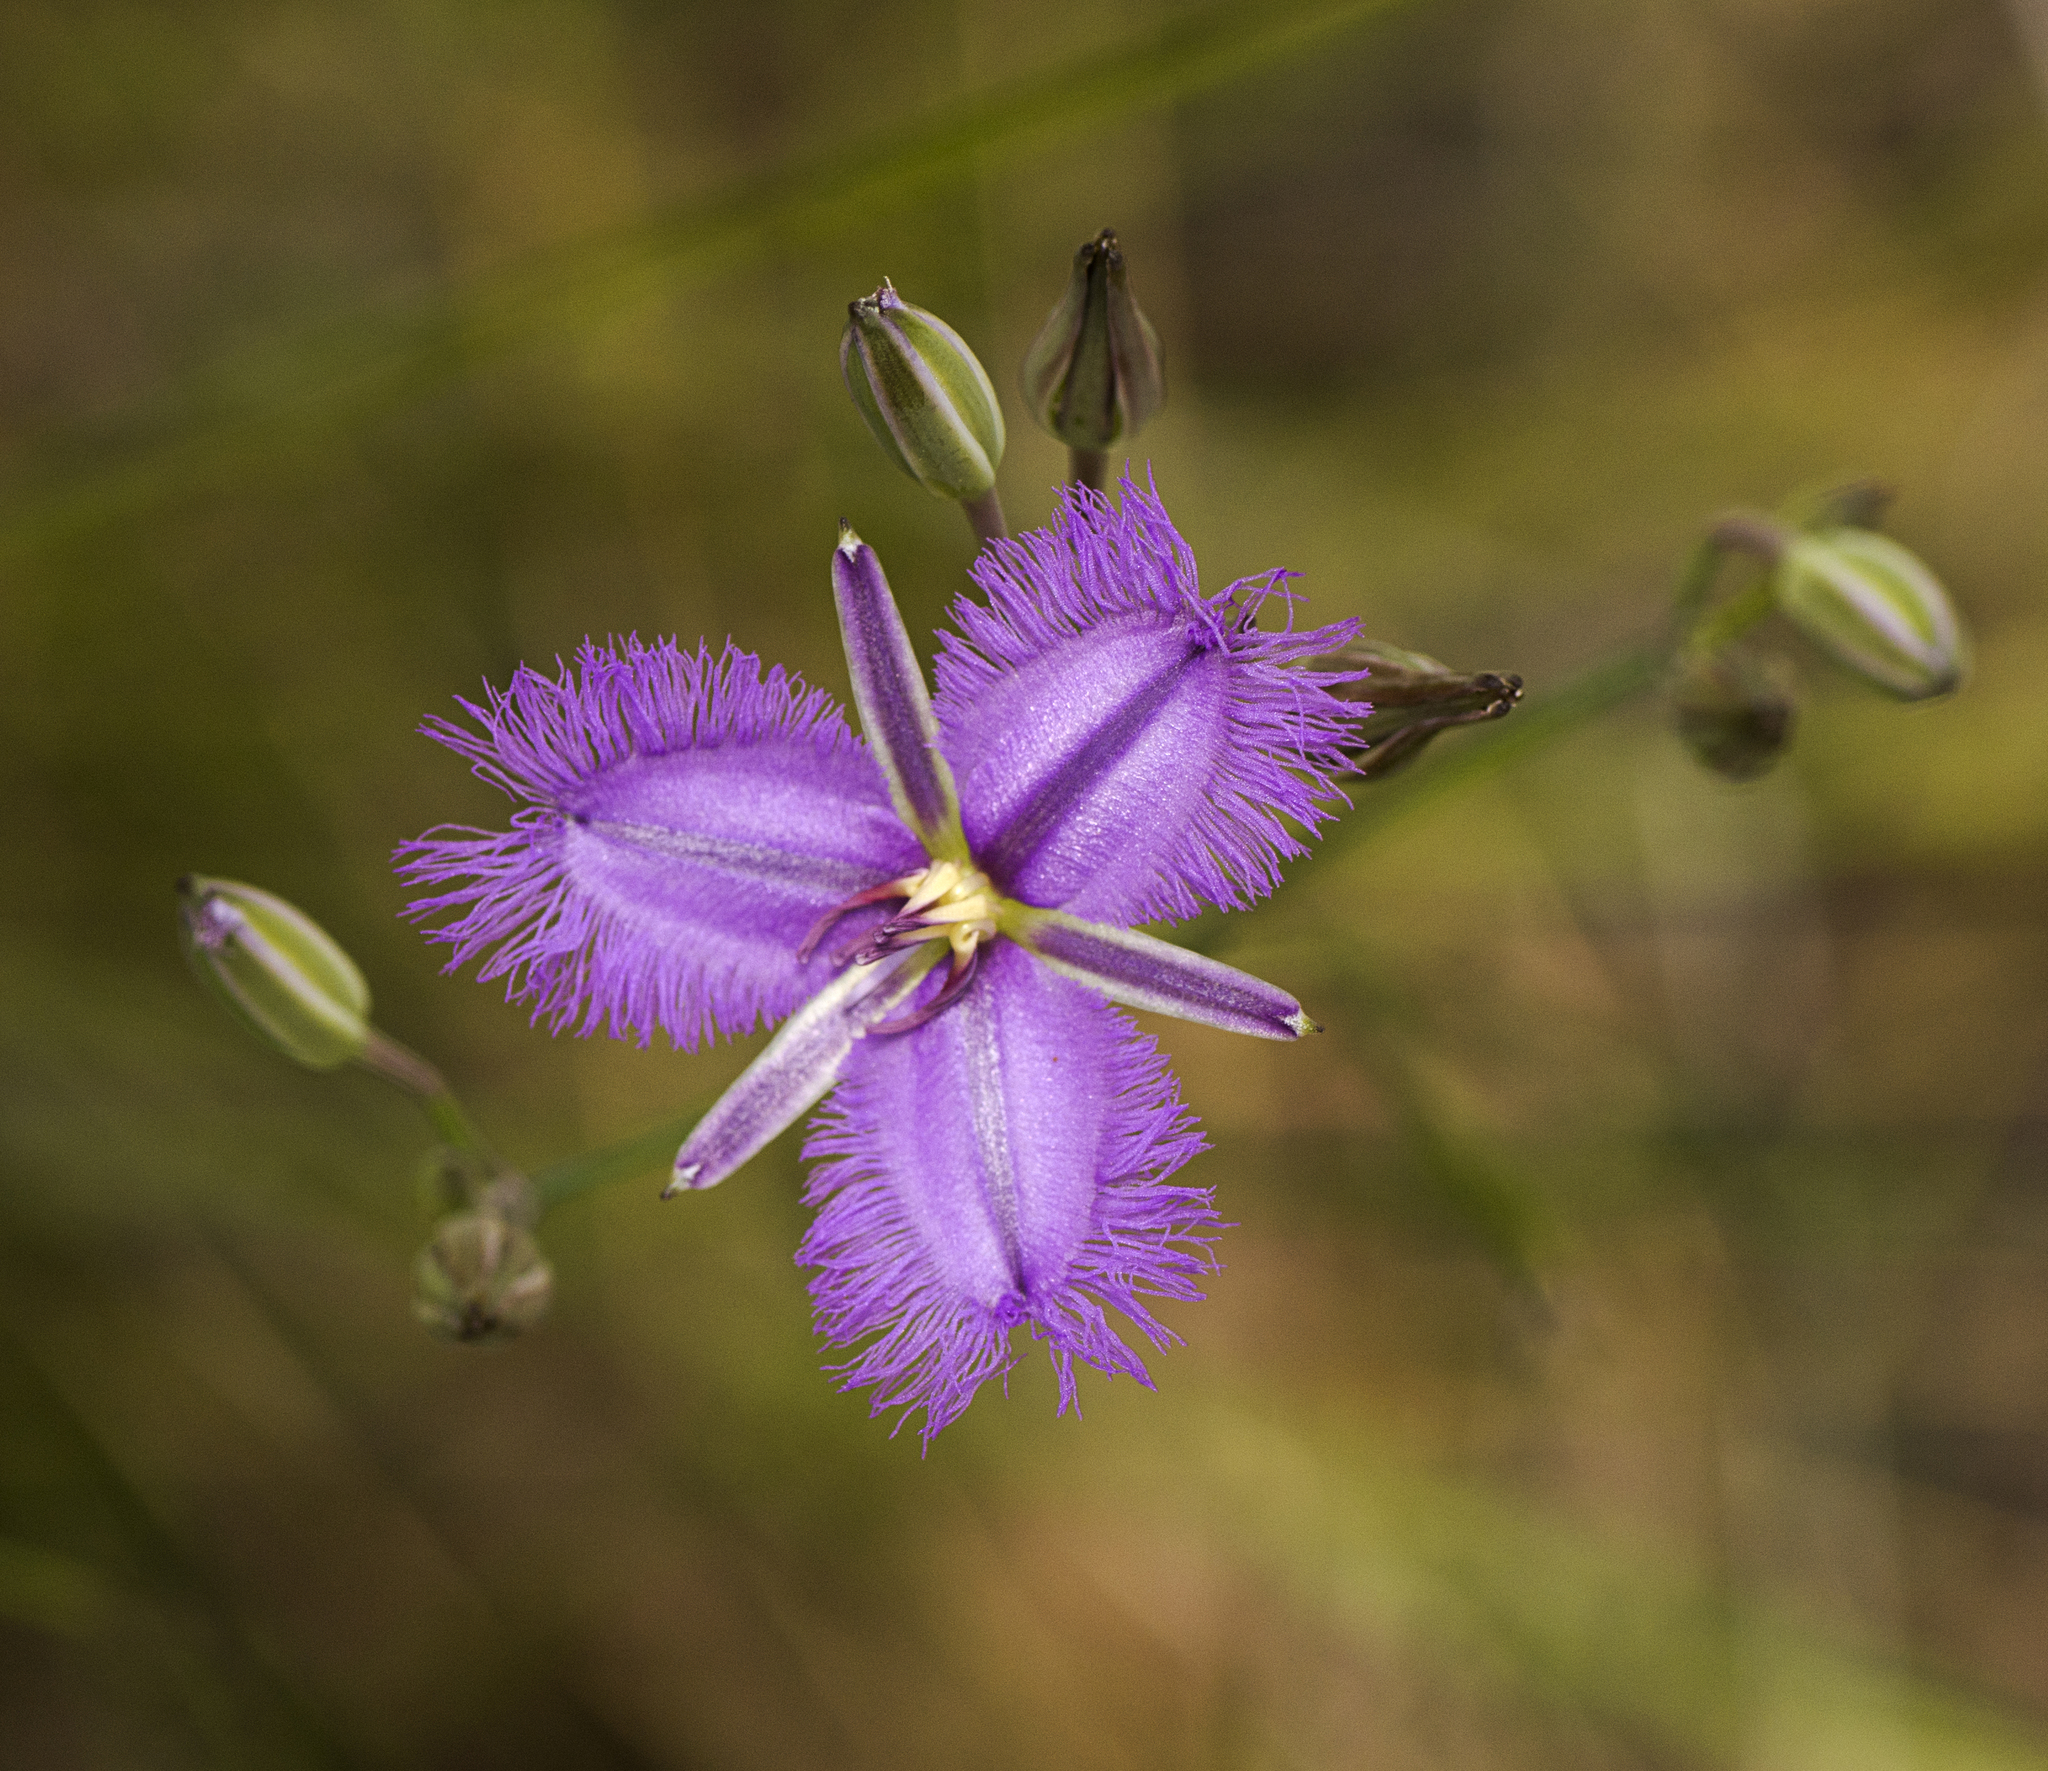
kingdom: Plantae
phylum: Tracheophyta
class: Liliopsida
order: Asparagales
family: Asparagaceae
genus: Thysanotus
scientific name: Thysanotus tuberosus
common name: Common fringed-lily
